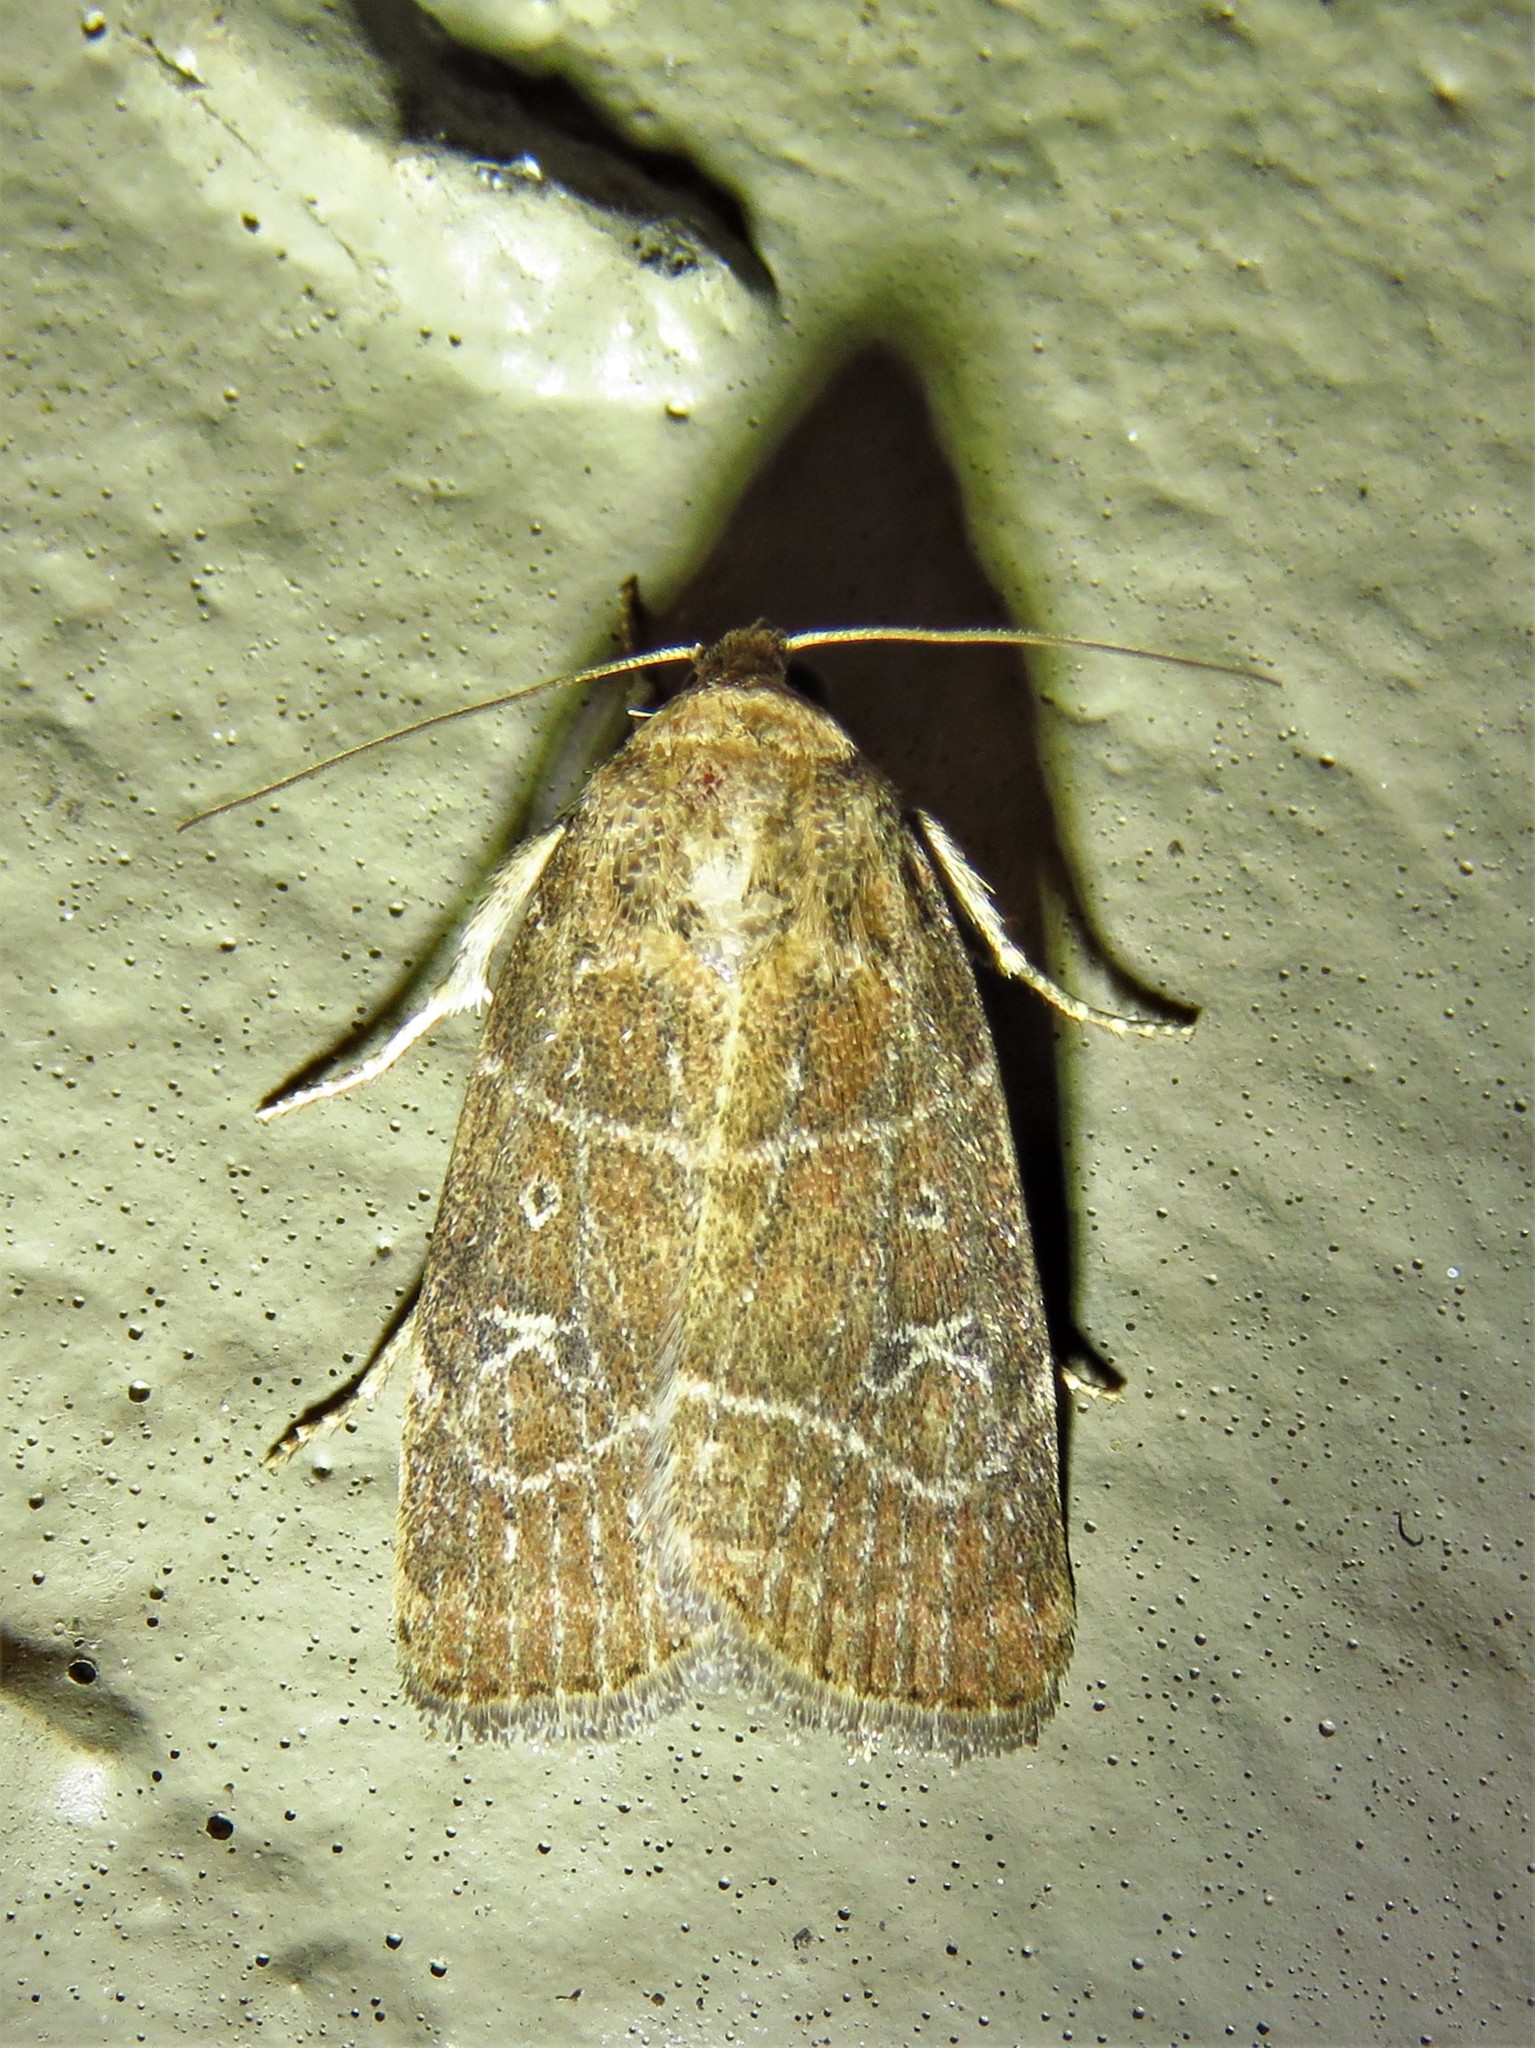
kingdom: Animalia
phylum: Arthropoda
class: Insecta
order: Lepidoptera
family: Noctuidae
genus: Elaphria
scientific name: Elaphria grata
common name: Grateful midget moth
